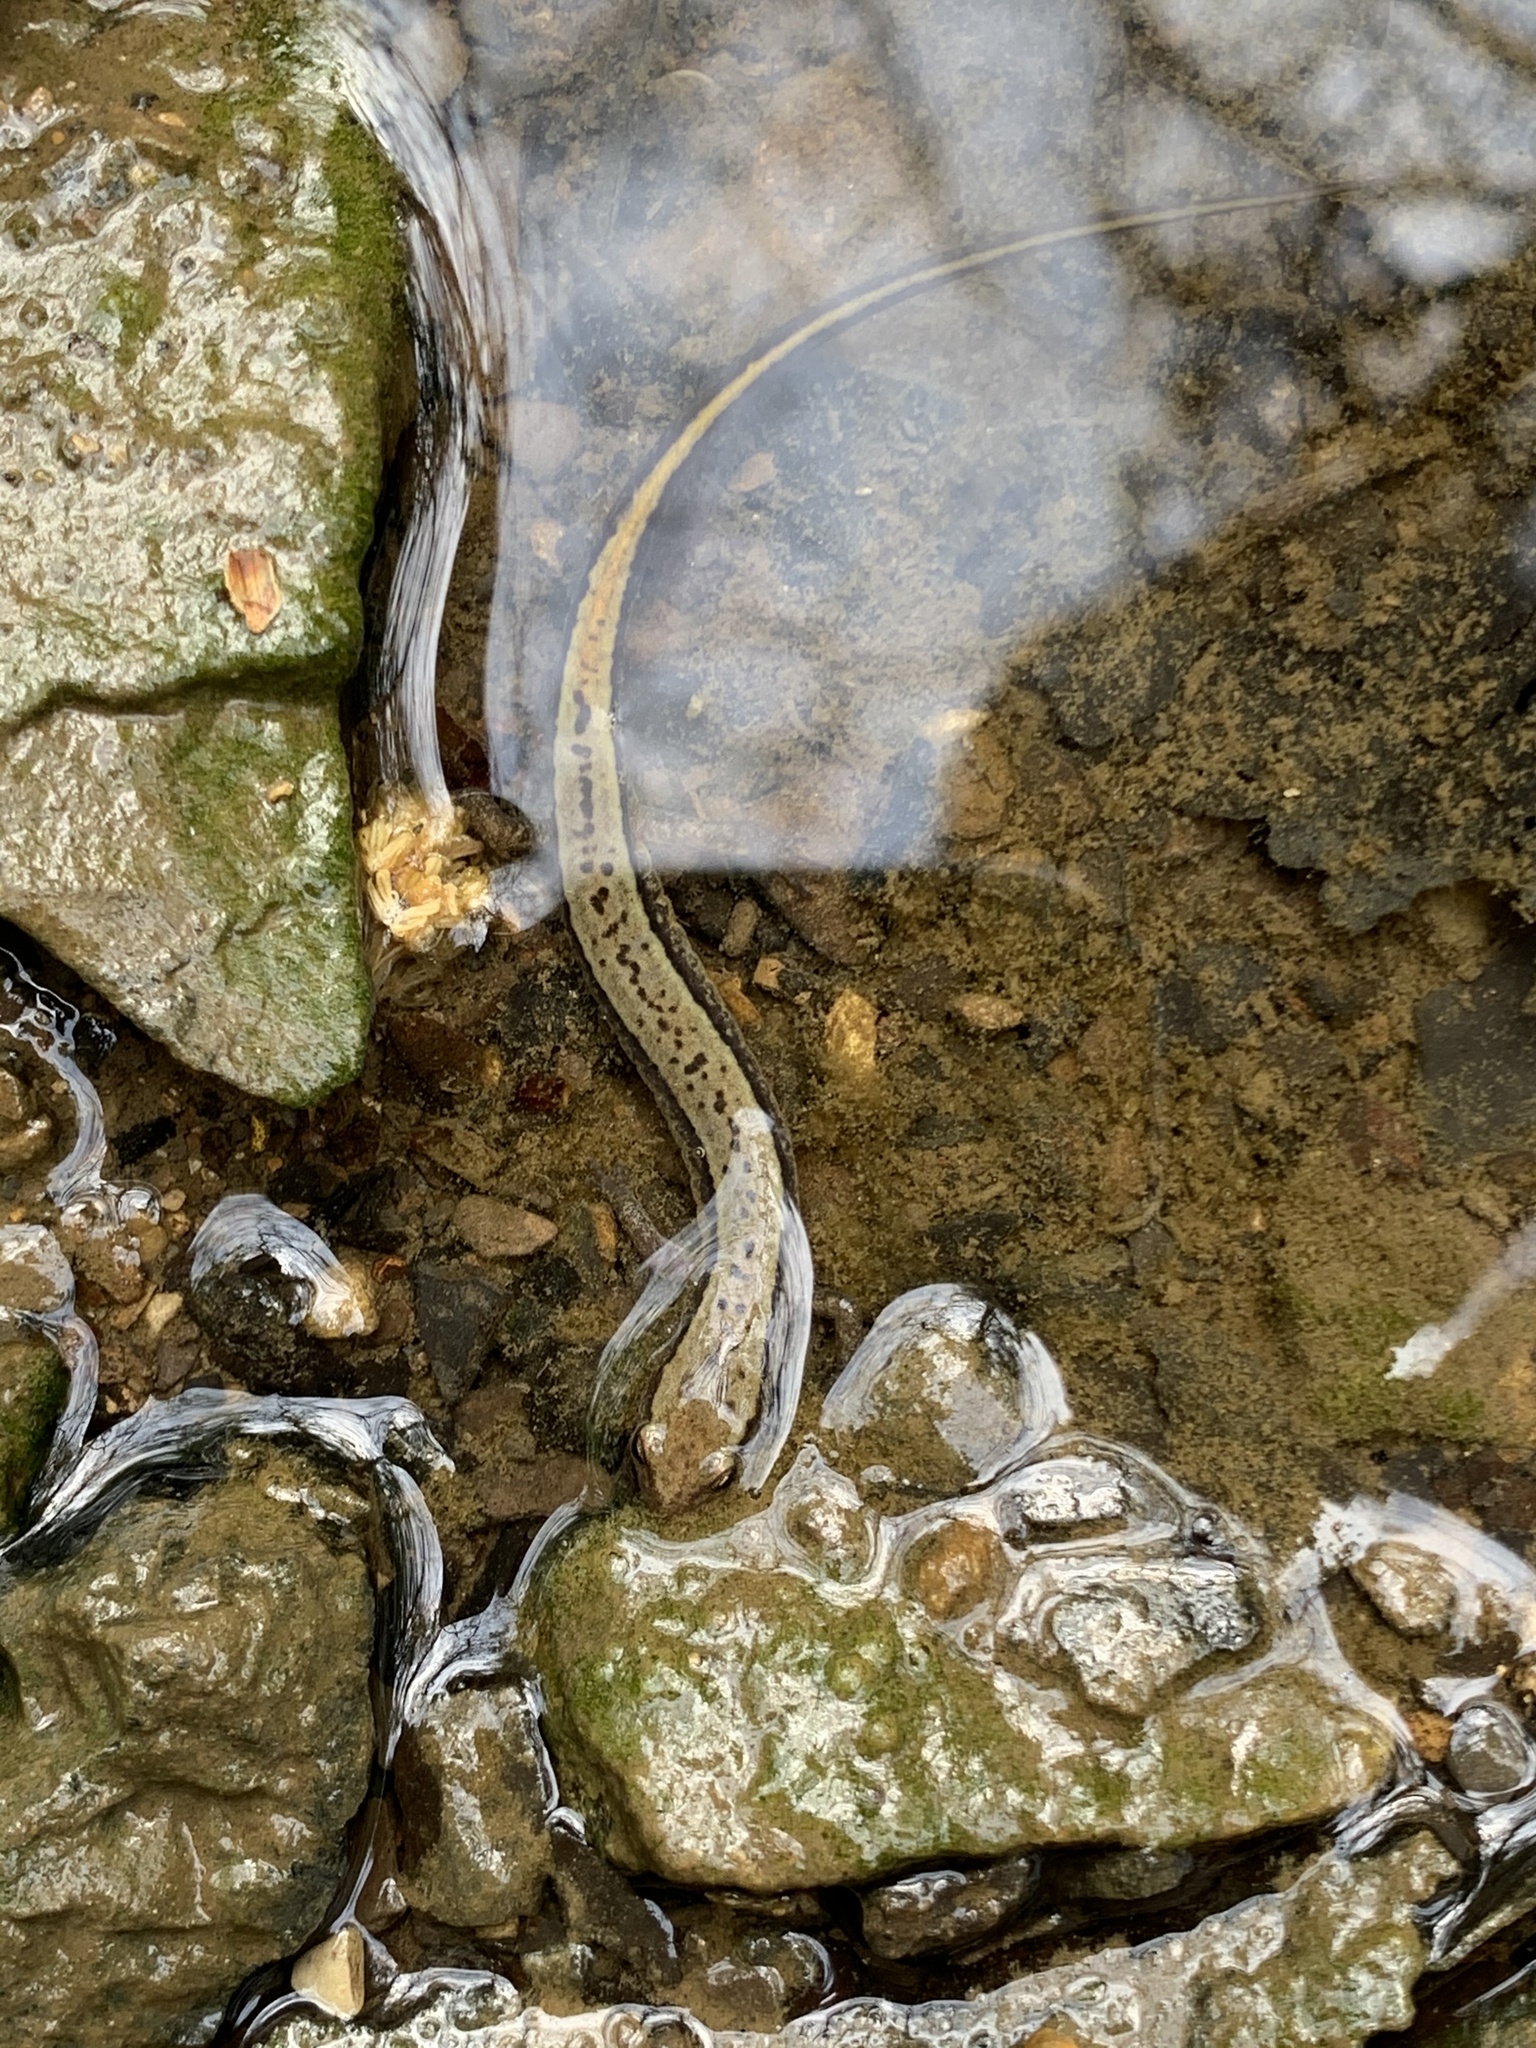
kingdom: Animalia
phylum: Chordata
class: Amphibia
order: Caudata
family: Plethodontidae
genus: Eurycea
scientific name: Eurycea cirrigera
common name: Southern two-lined salamander
